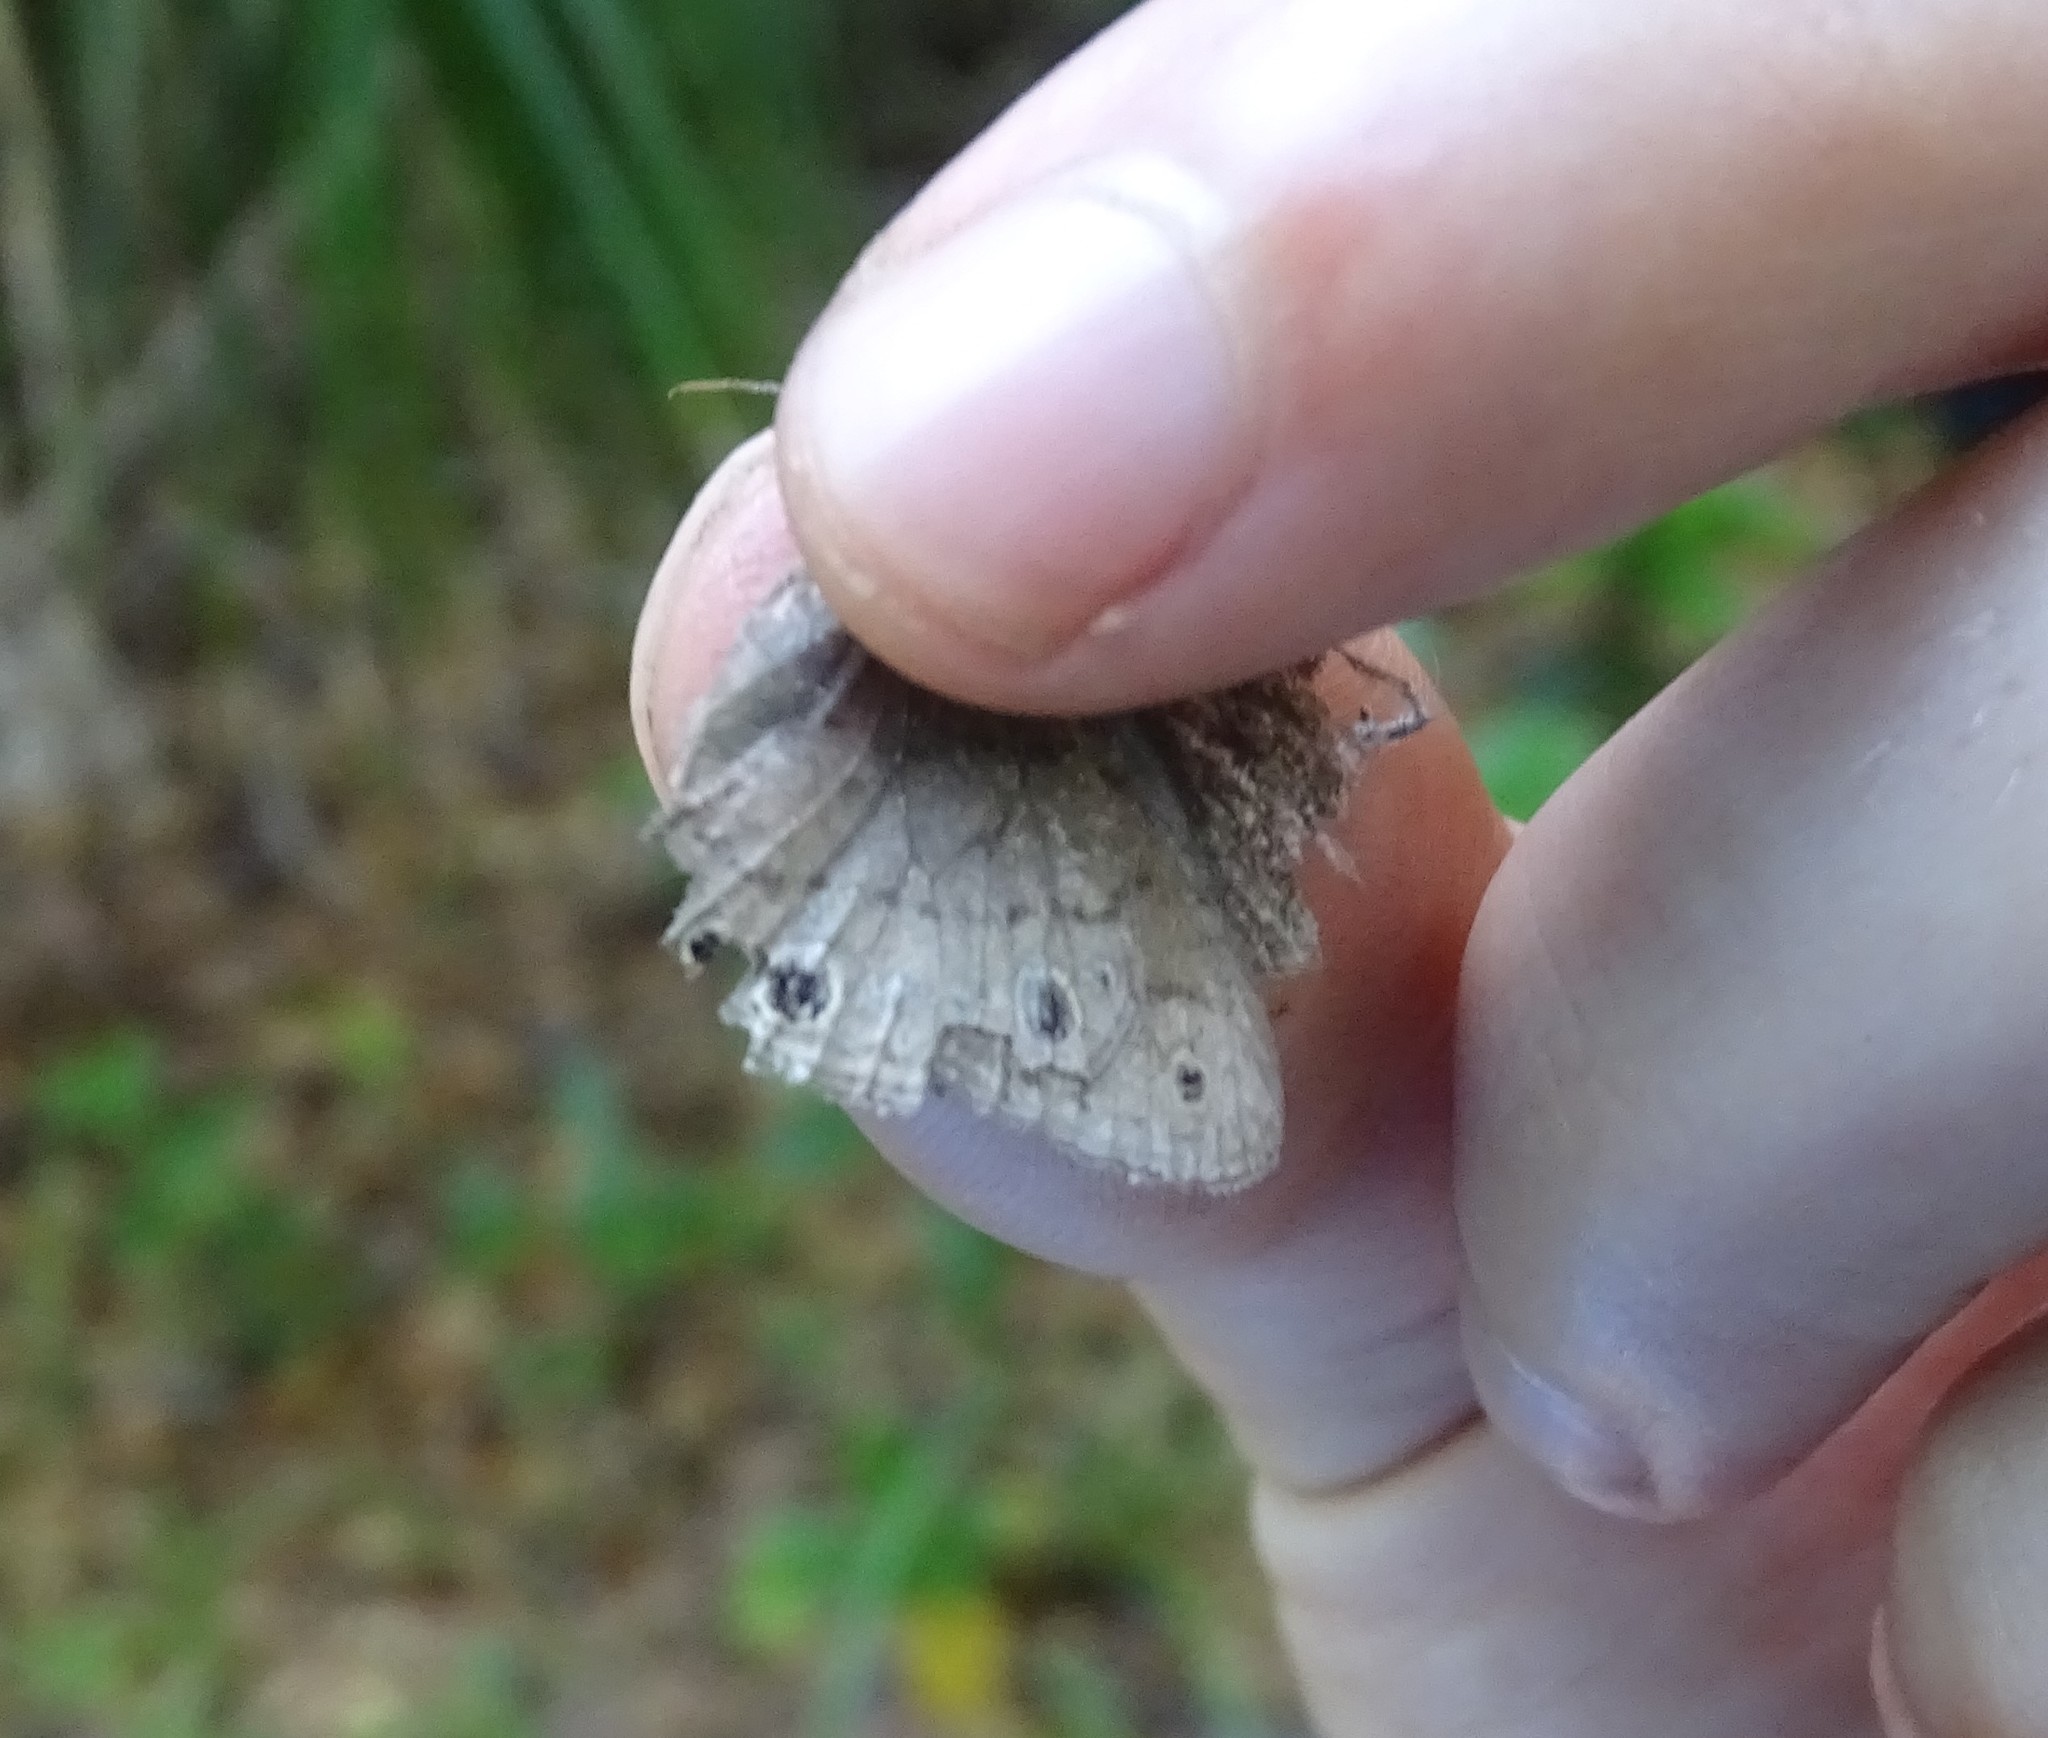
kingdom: Animalia
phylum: Arthropoda
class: Insecta
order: Lepidoptera
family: Nymphalidae
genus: Hermeuptychia
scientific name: Hermeuptychia hermes
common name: Hermes satyr
